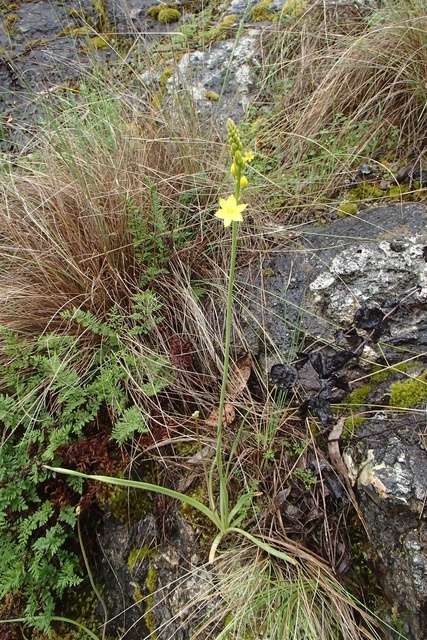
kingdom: Plantae
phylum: Tracheophyta
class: Liliopsida
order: Asparagales
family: Asphodelaceae
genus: Bulbine
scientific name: Bulbine bulbosa
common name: Golden-lily
